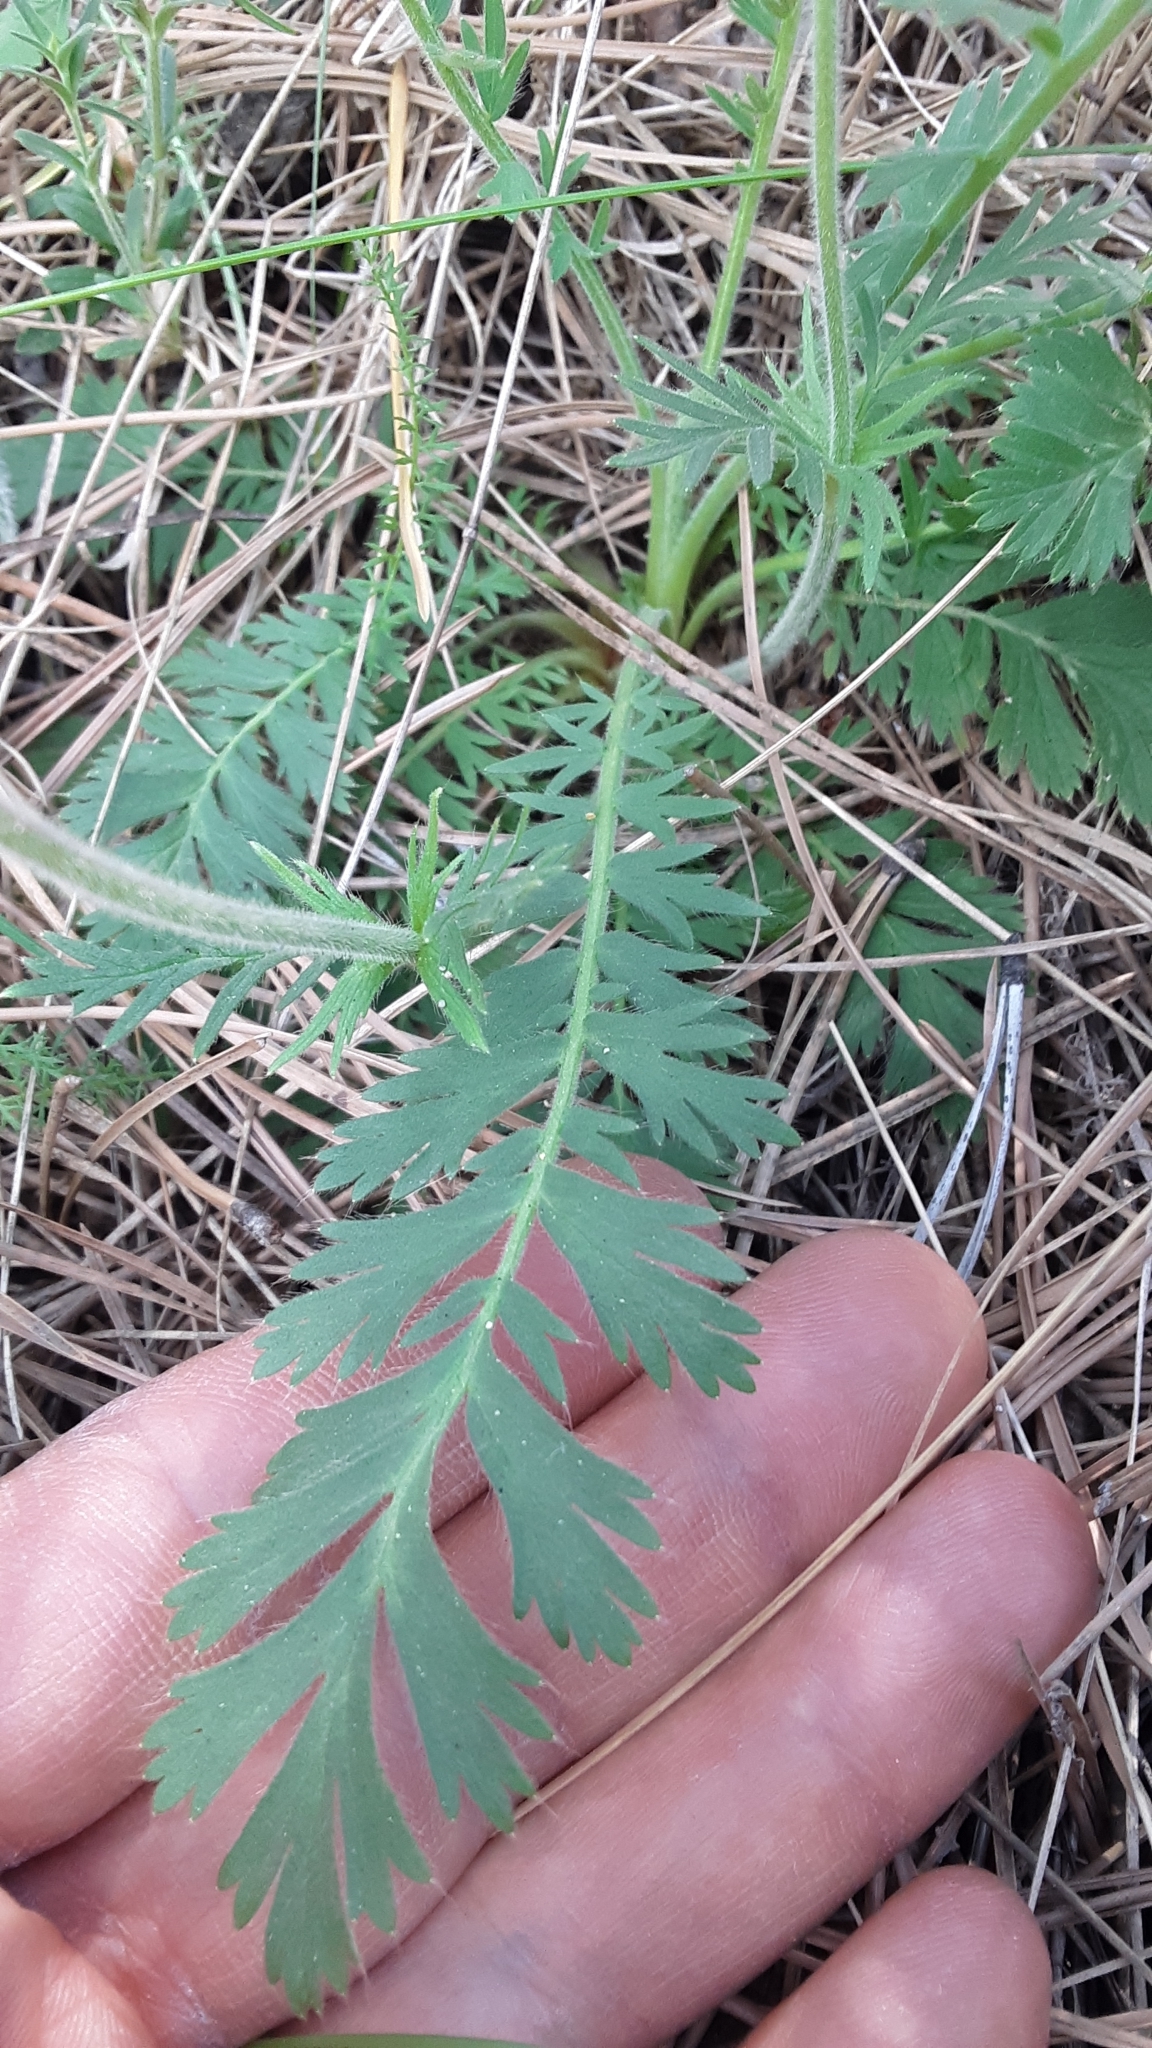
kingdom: Plantae
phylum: Tracheophyta
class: Magnoliopsida
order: Rosales
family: Rosaceae
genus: Geum
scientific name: Geum triflorum
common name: Old man's whiskers
